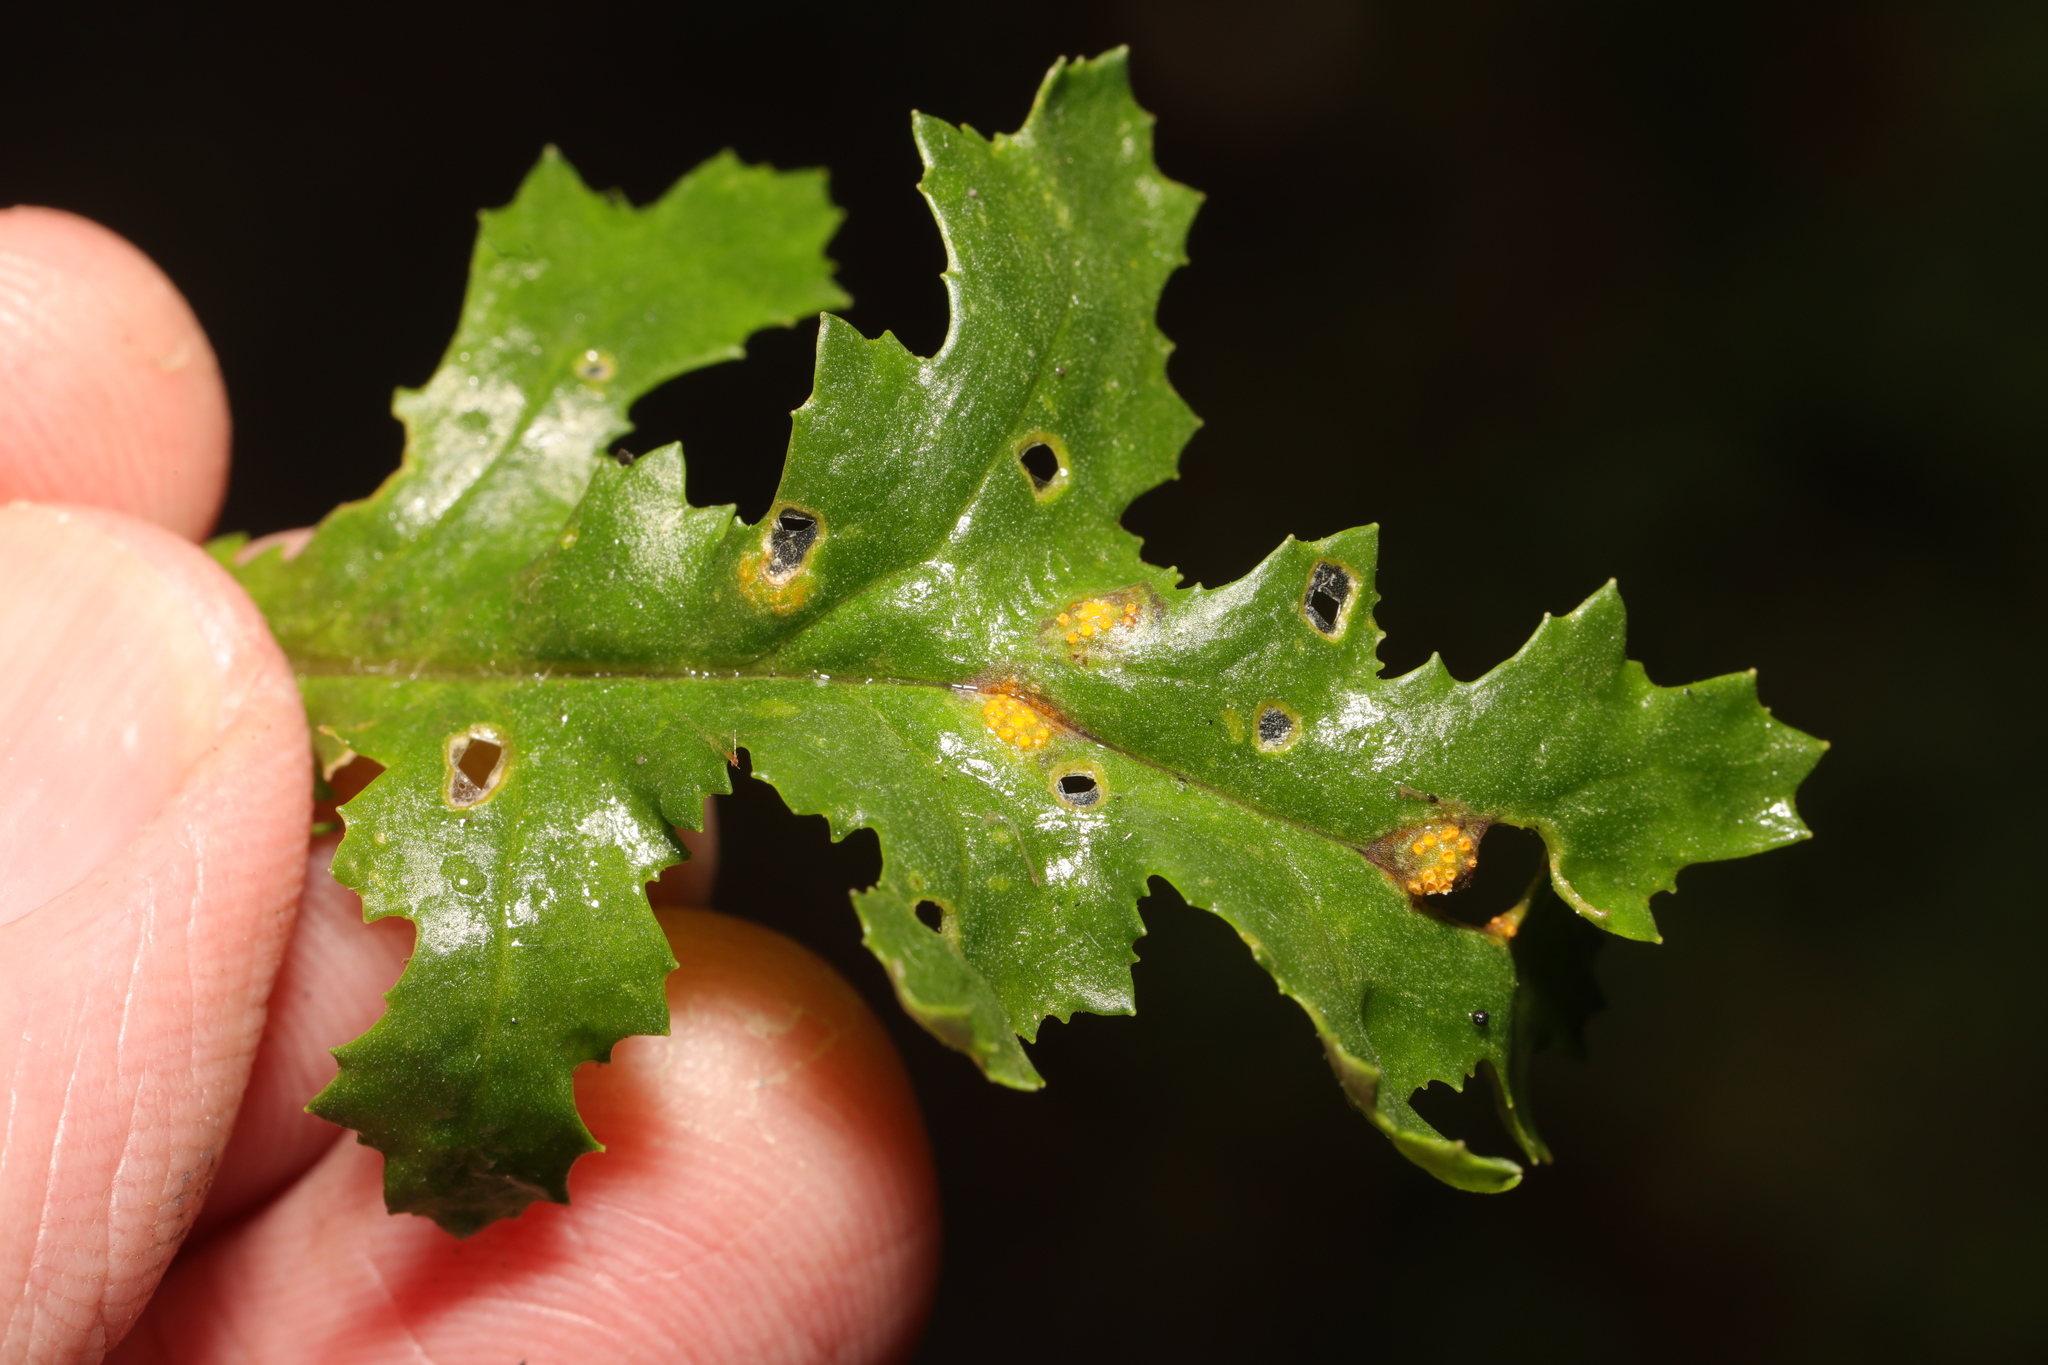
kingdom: Fungi
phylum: Basidiomycota
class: Pucciniomycetes
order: Pucciniales
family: Pucciniaceae
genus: Puccinia
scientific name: Puccinia lagenophorae
